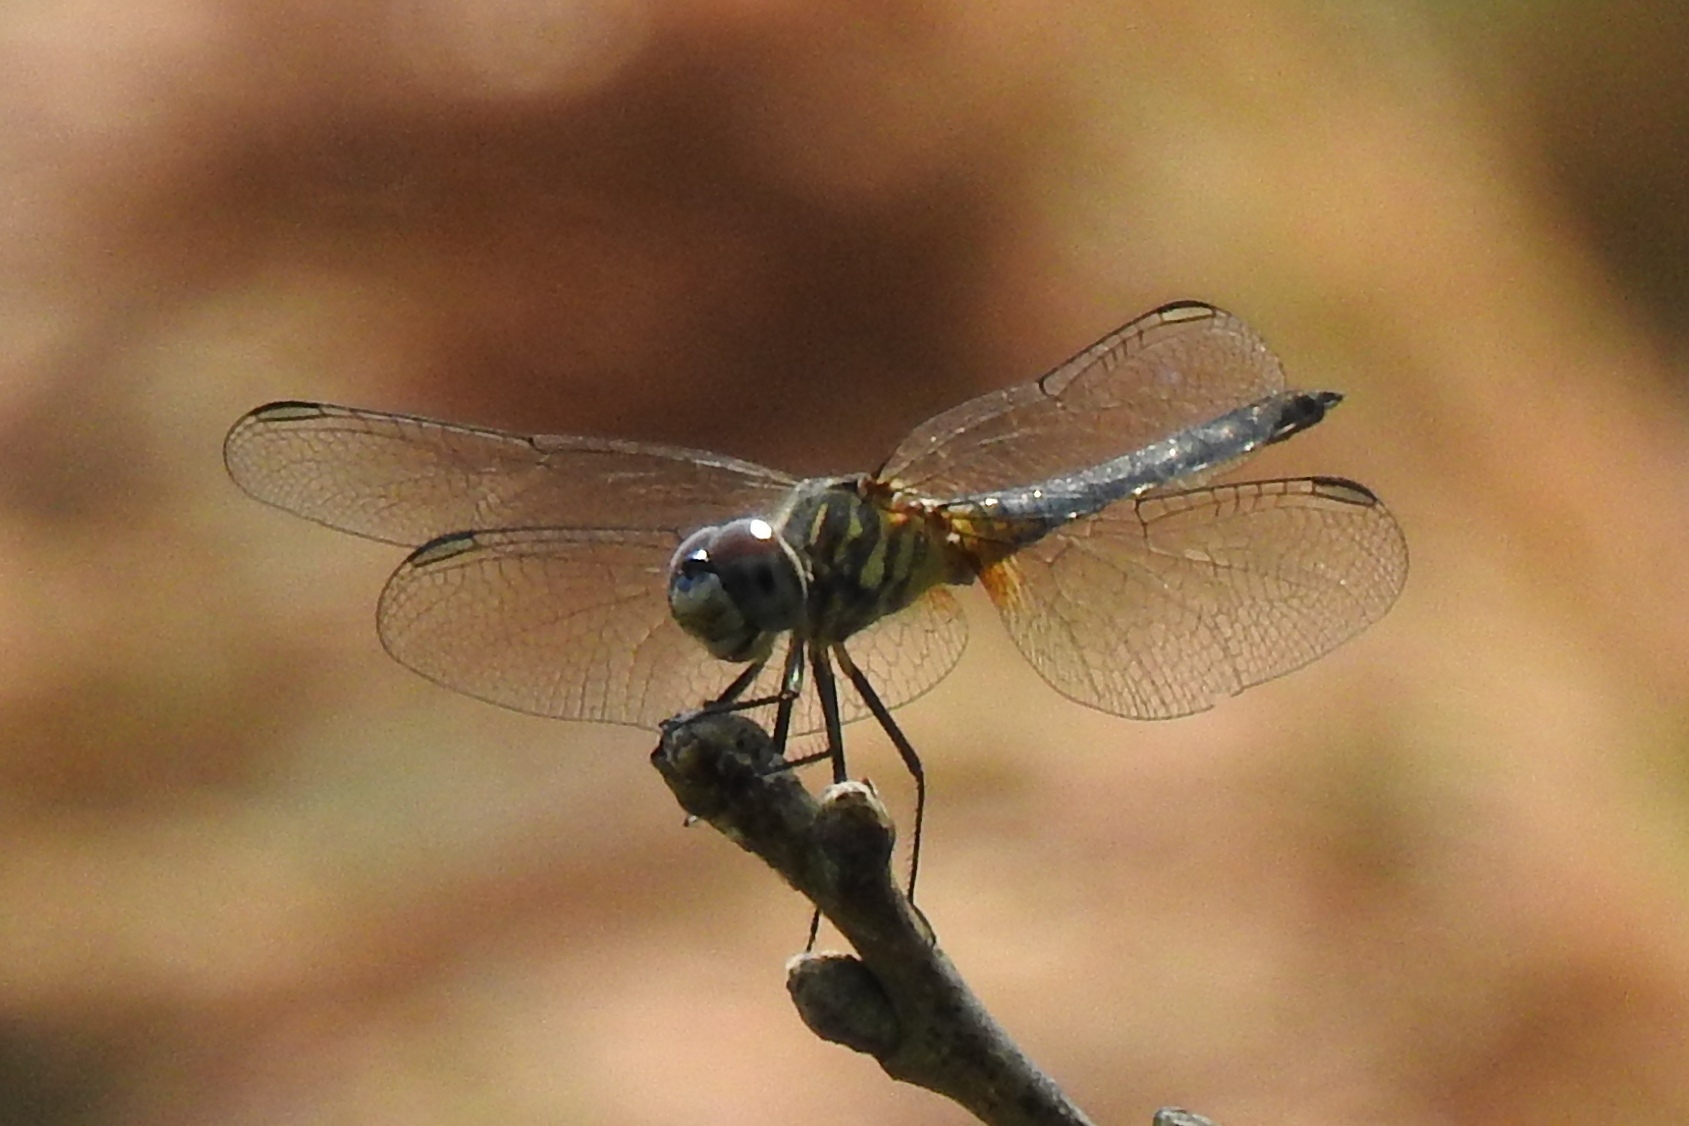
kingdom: Animalia
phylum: Arthropoda
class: Insecta
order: Odonata
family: Libellulidae
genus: Pachydiplax
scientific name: Pachydiplax longipennis
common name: Blue dasher
